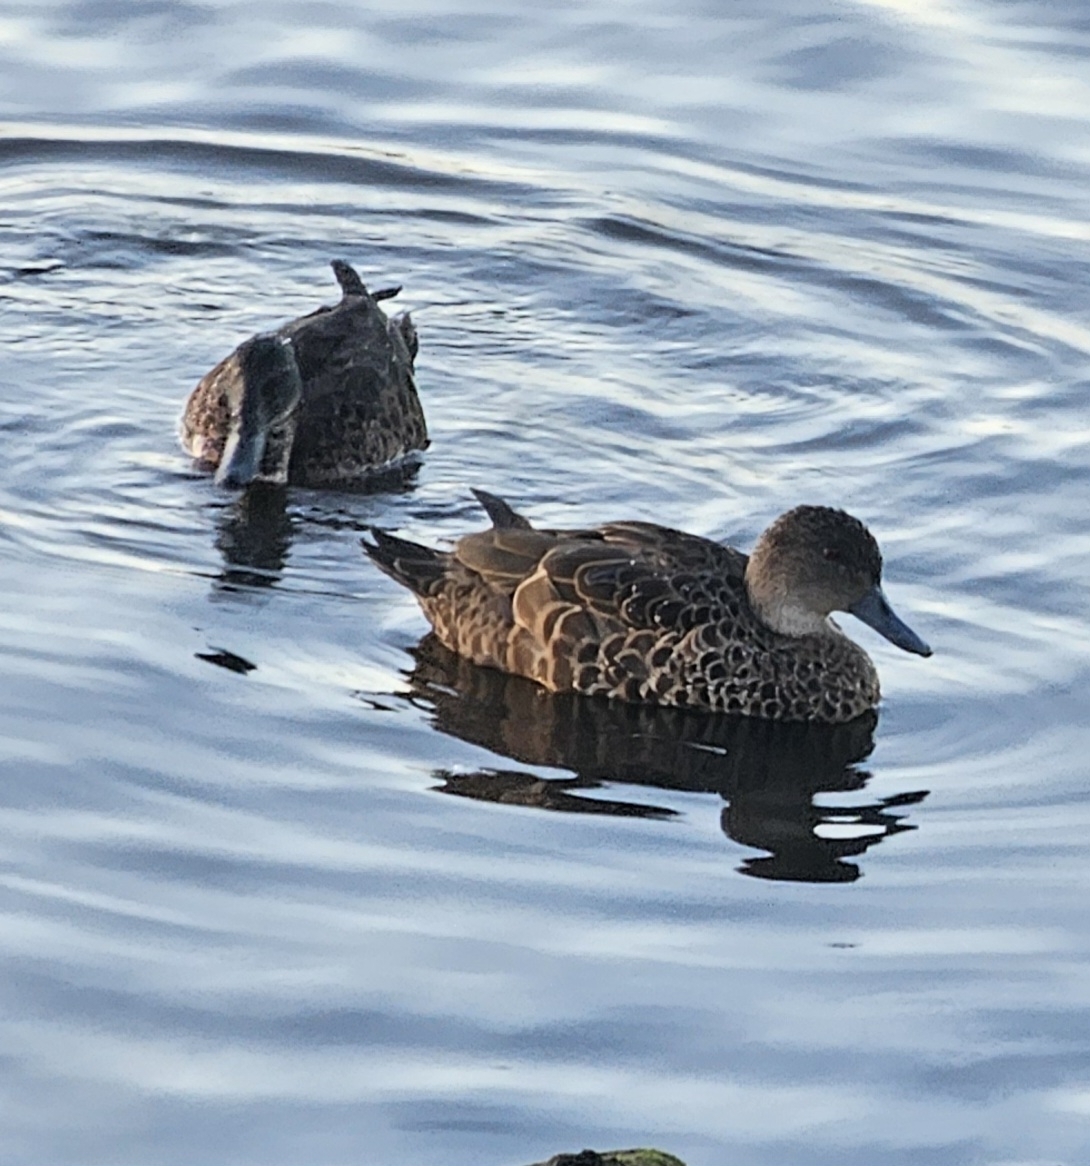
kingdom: Animalia
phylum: Chordata
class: Aves
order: Anseriformes
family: Anatidae
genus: Anas
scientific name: Anas castanea
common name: Chestnut teal
